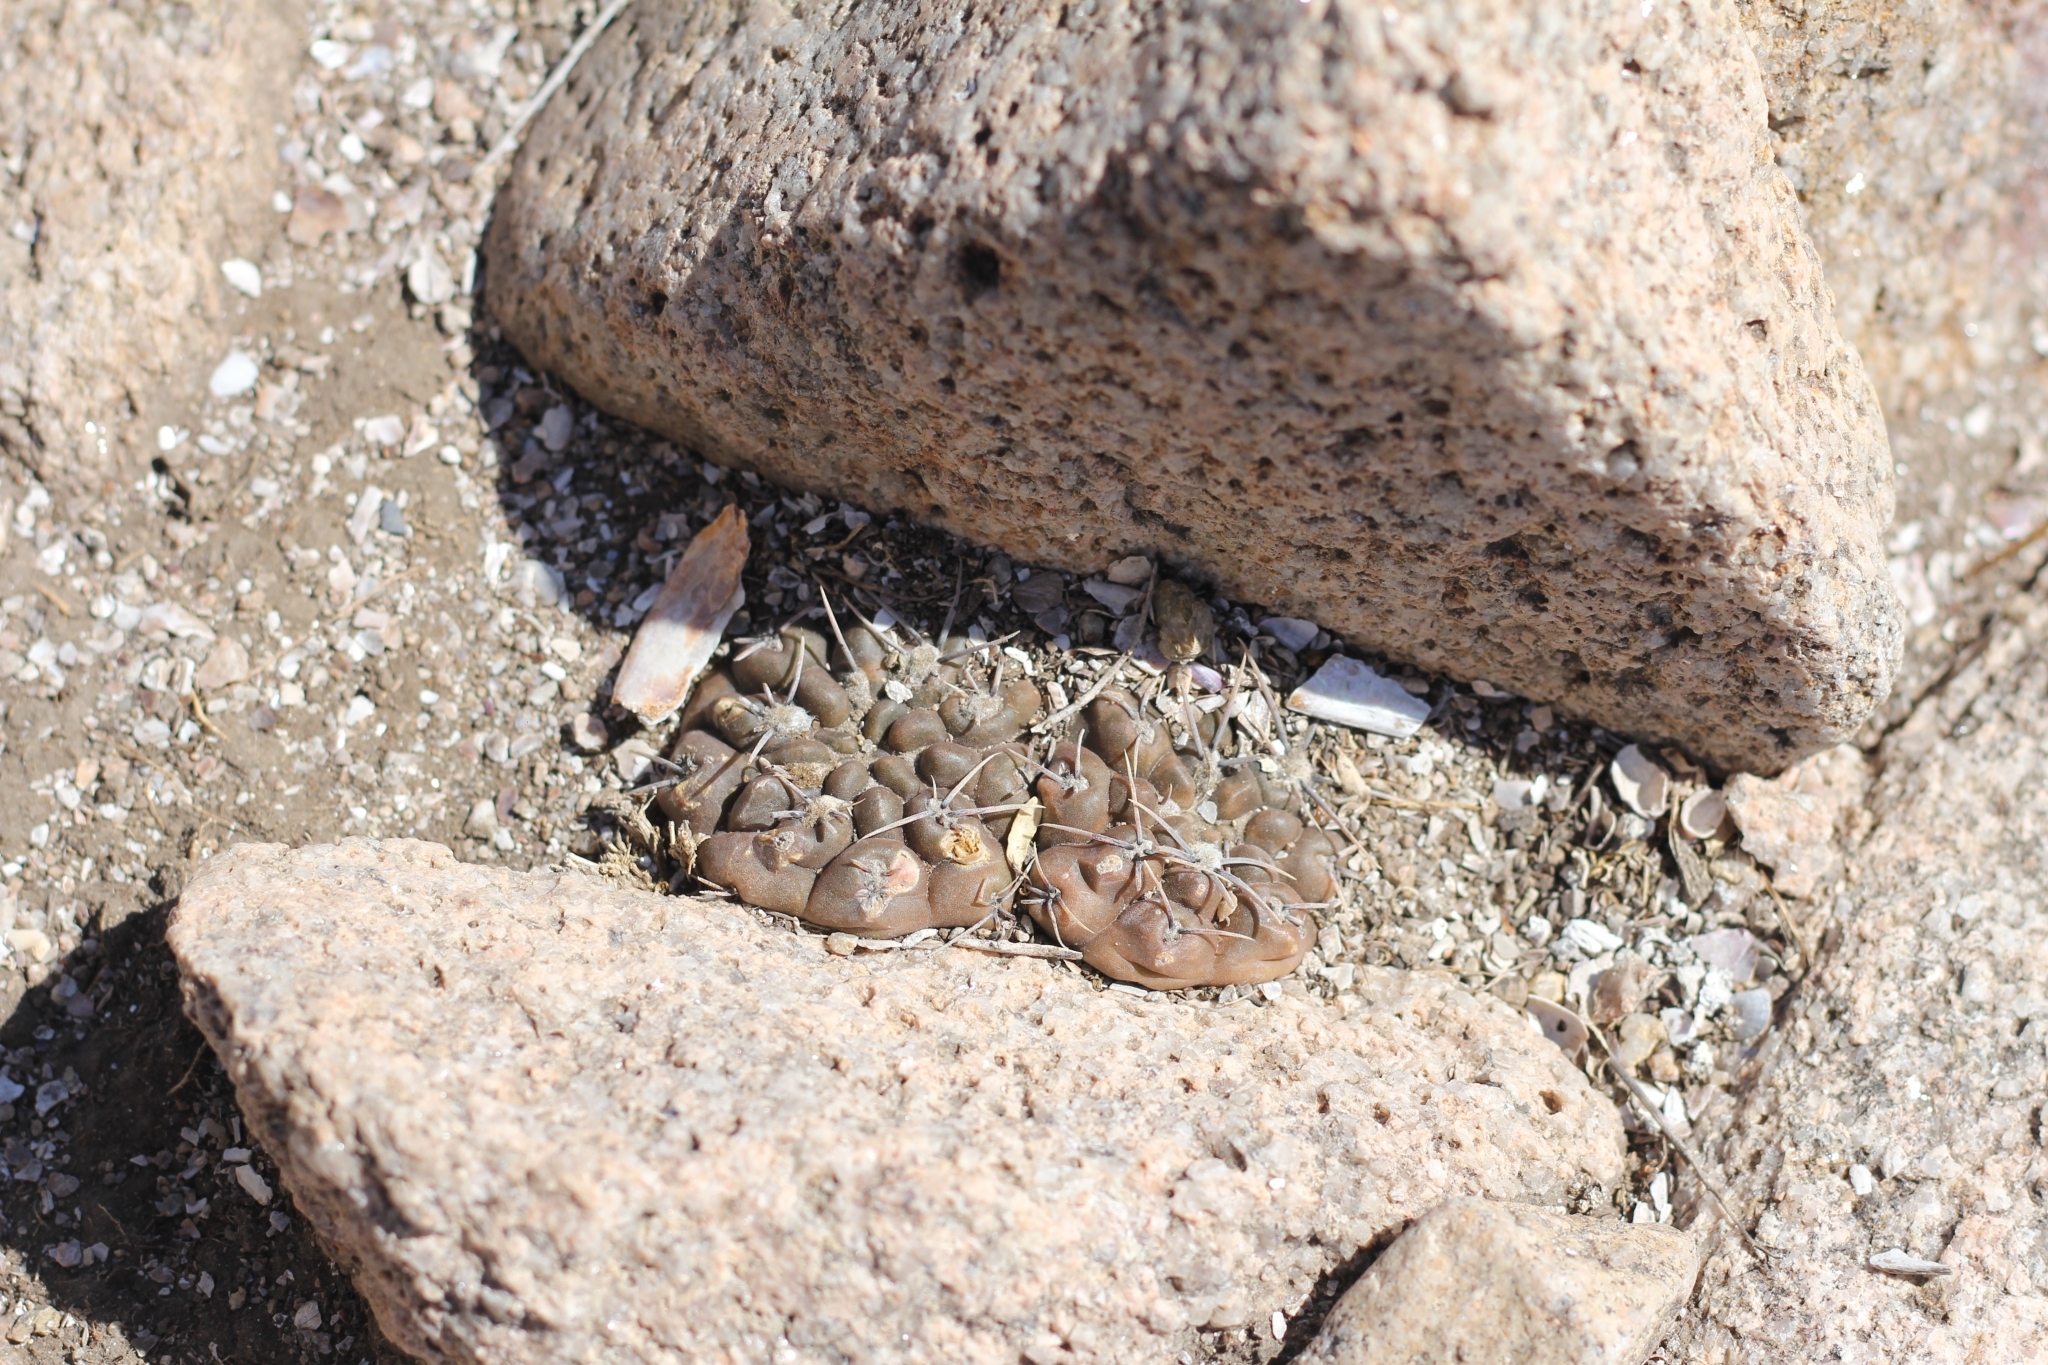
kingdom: Plantae
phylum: Tracheophyta
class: Magnoliopsida
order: Caryophyllales
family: Cactaceae
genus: Gymnocalycium
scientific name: Gymnocalycium gibbosum
